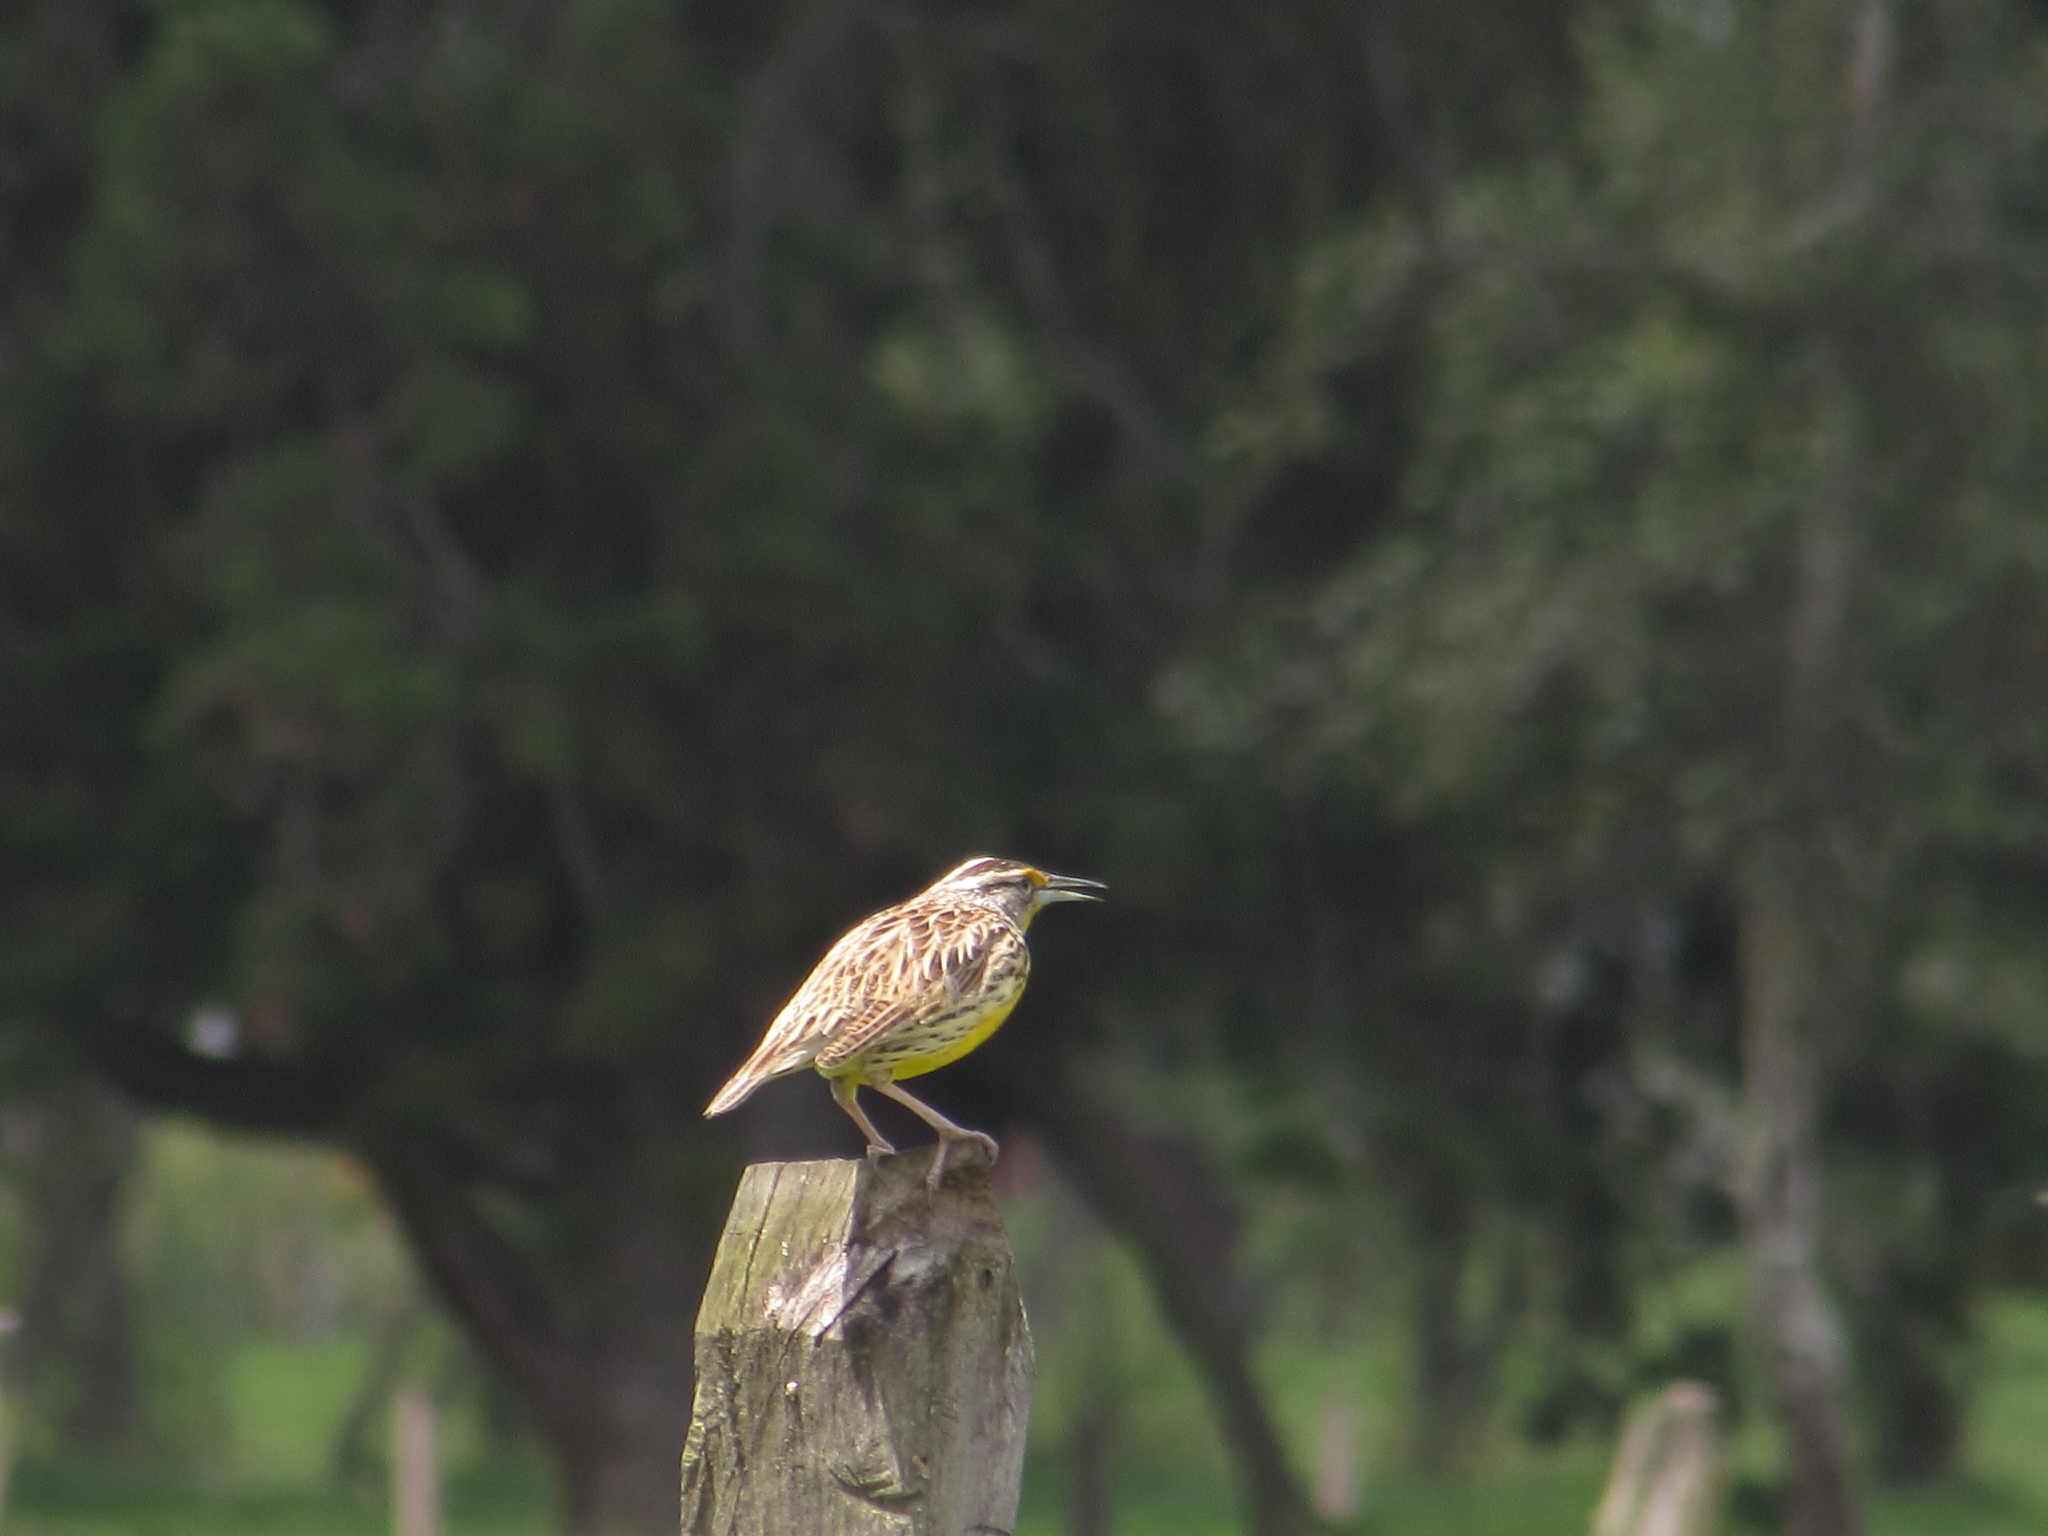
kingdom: Animalia
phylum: Chordata
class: Aves
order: Passeriformes
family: Icteridae
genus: Sturnella
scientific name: Sturnella magna
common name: Eastern meadowlark
